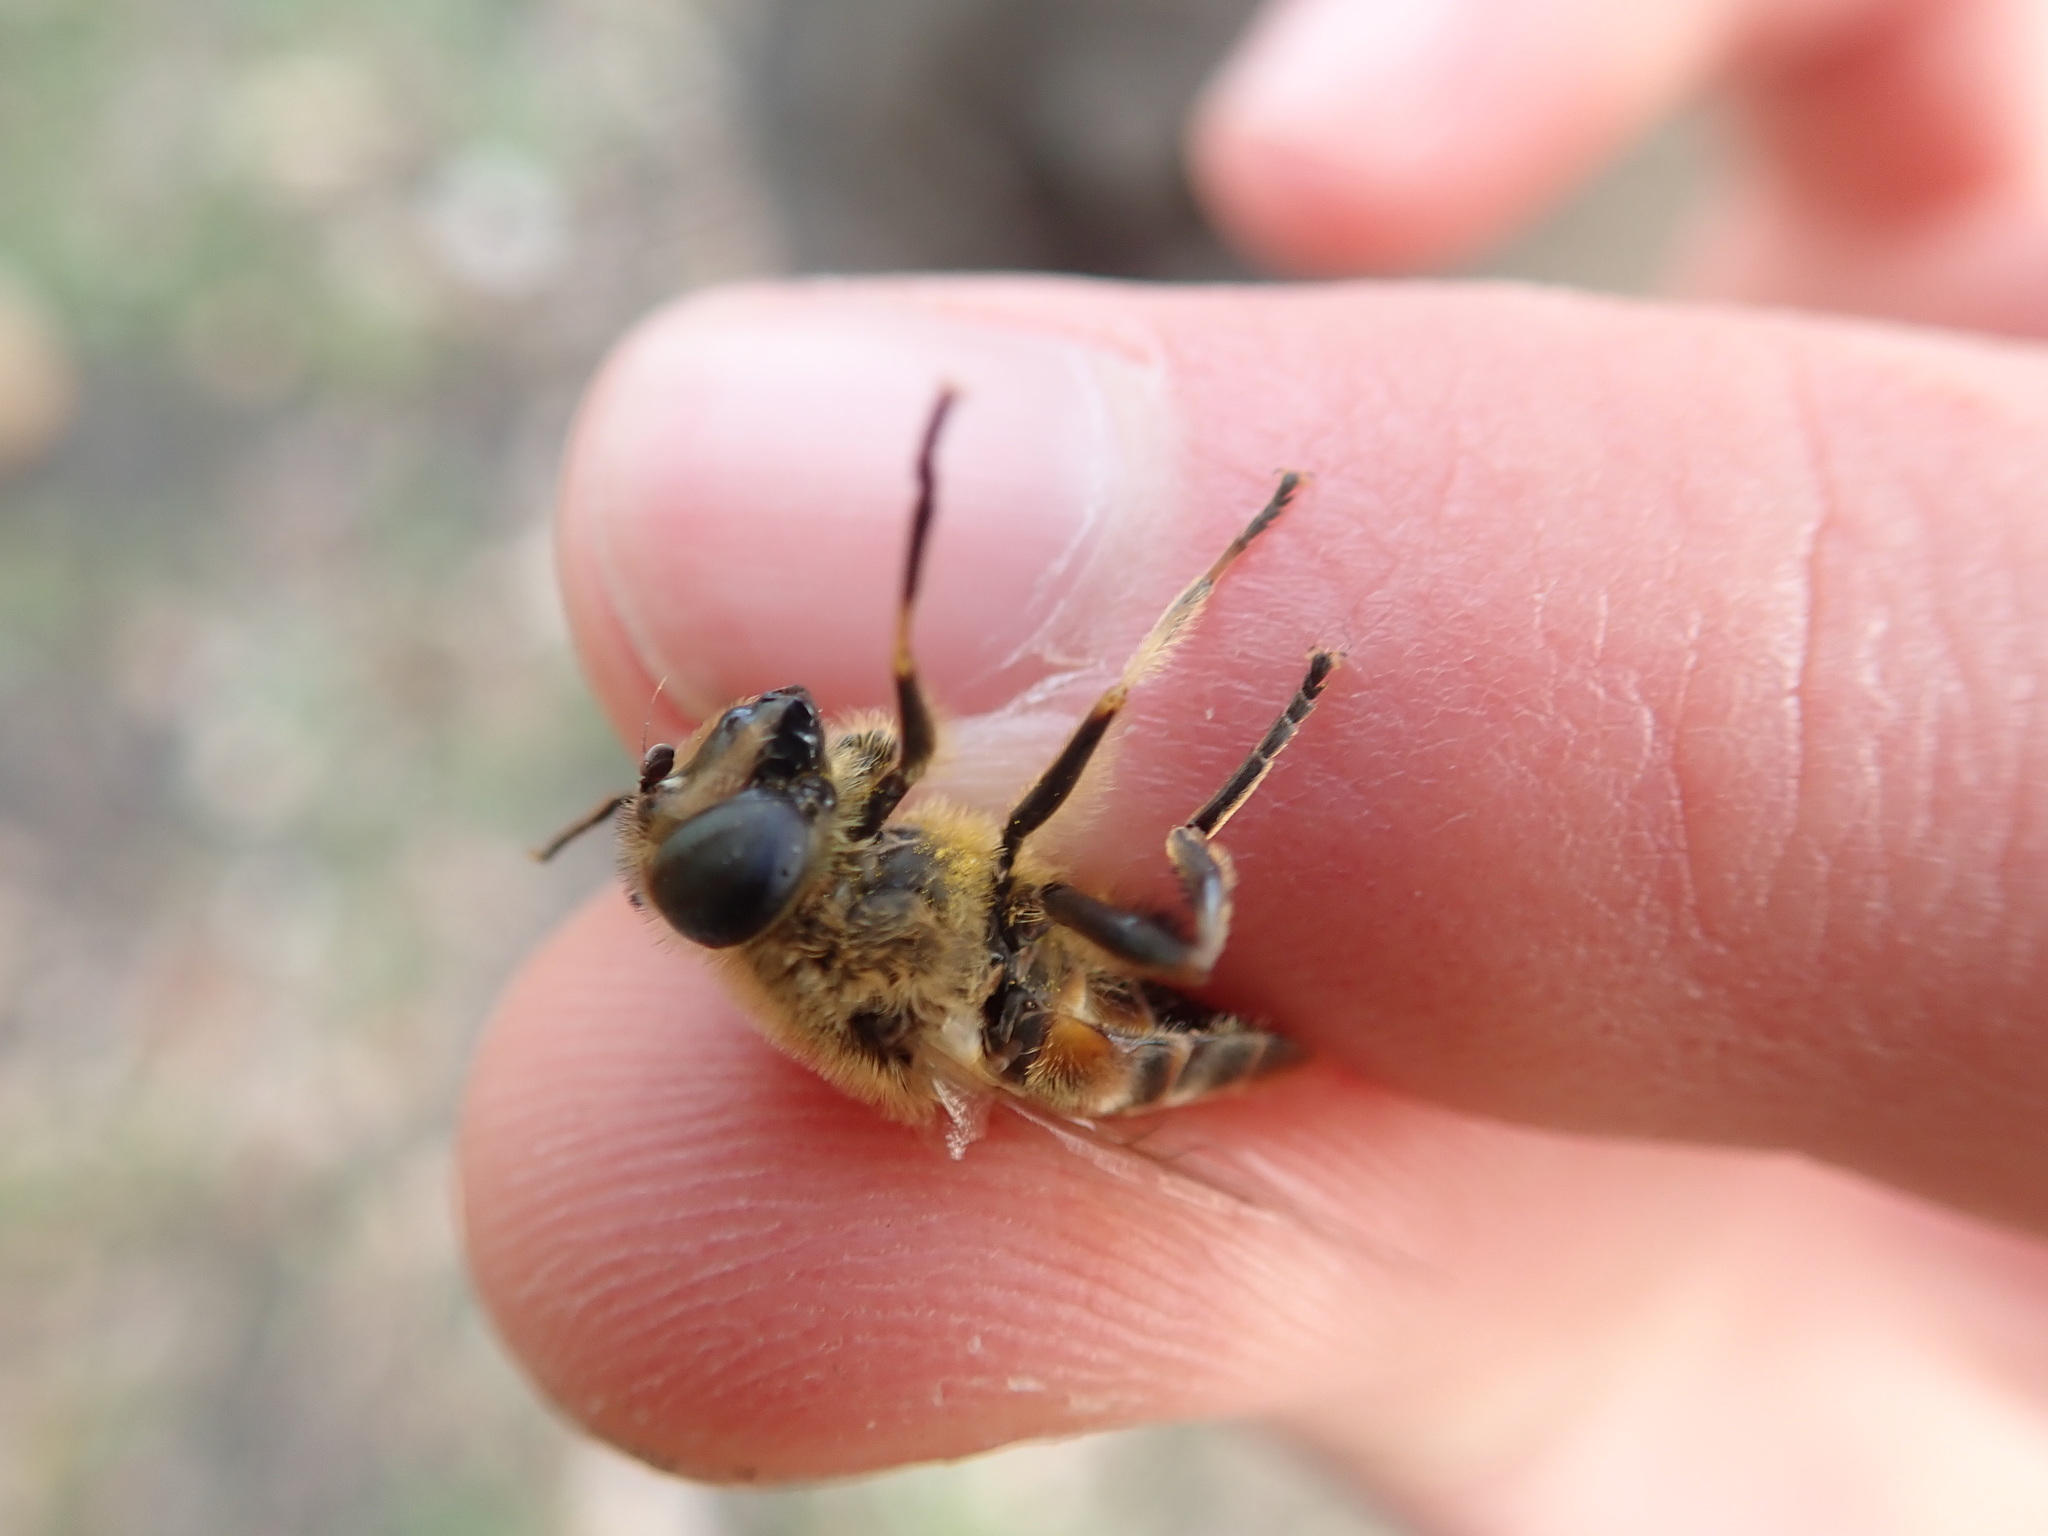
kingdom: Animalia
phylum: Arthropoda
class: Insecta
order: Diptera
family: Syrphidae
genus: Eristalis
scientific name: Eristalis tenax
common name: Drone fly
